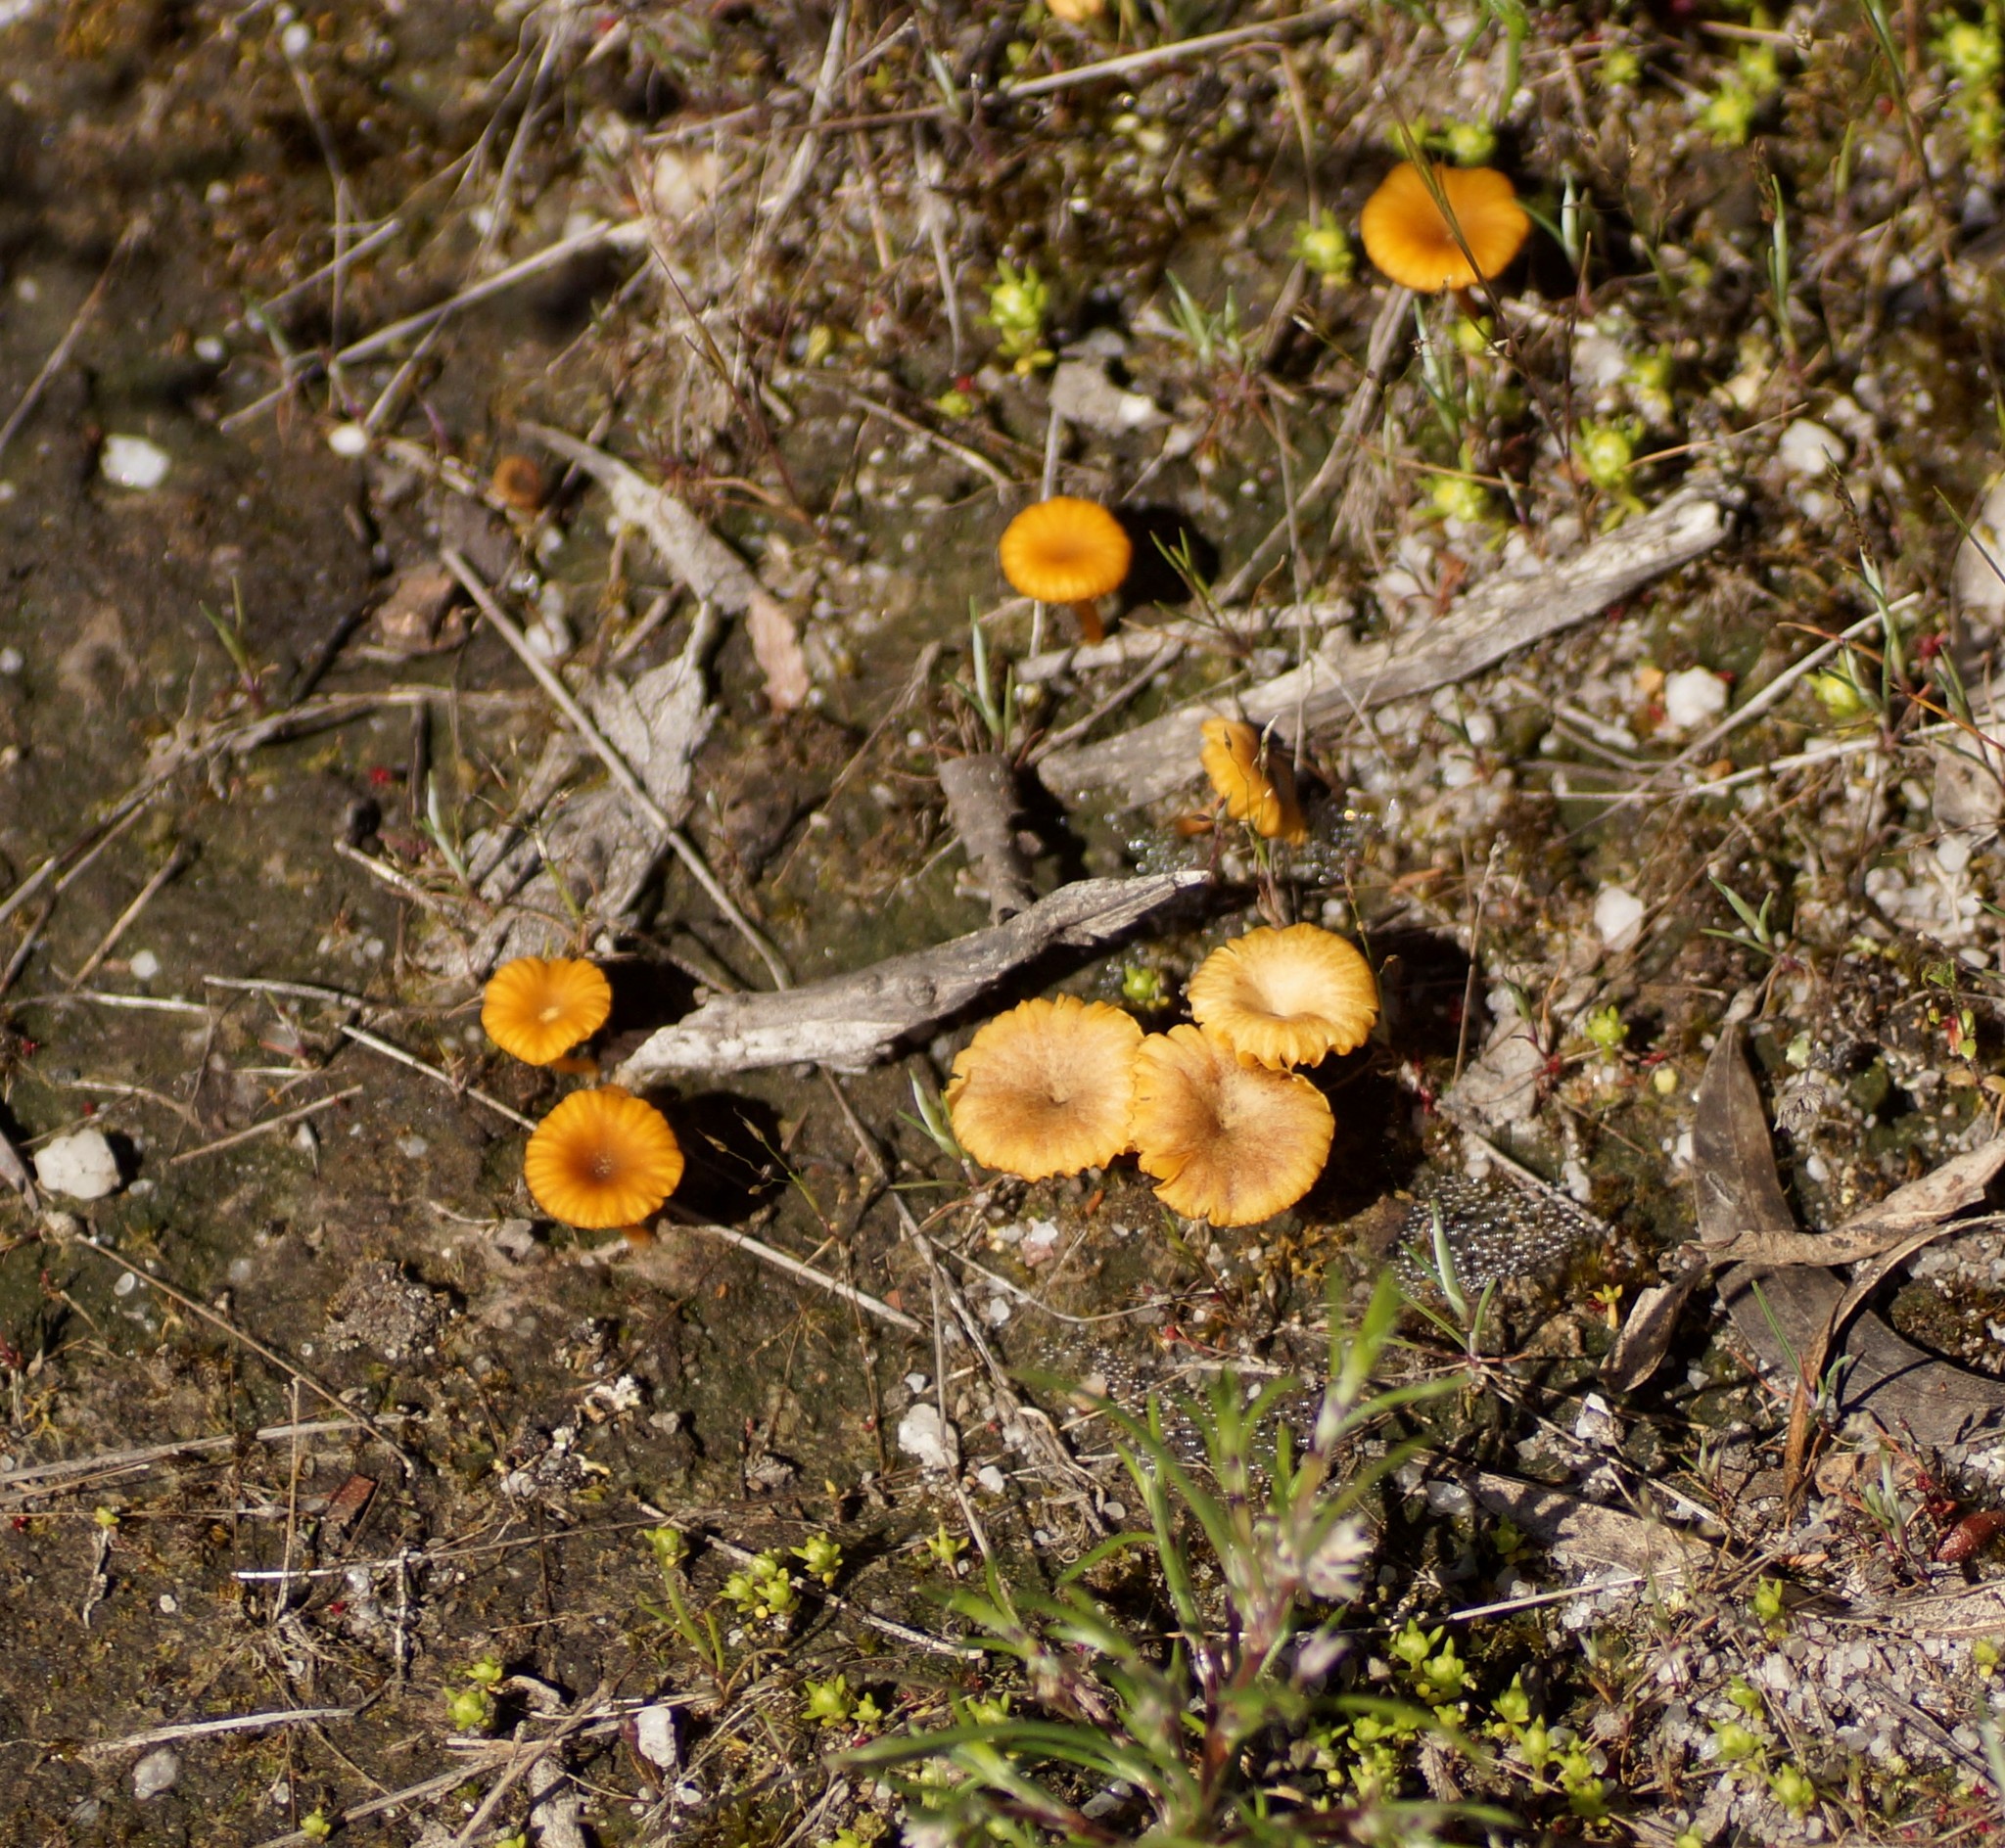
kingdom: Fungi
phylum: Basidiomycota
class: Agaricomycetes
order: Agaricales
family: Hygrophoraceae
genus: Lichenomphalia
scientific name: Lichenomphalia chromacea
